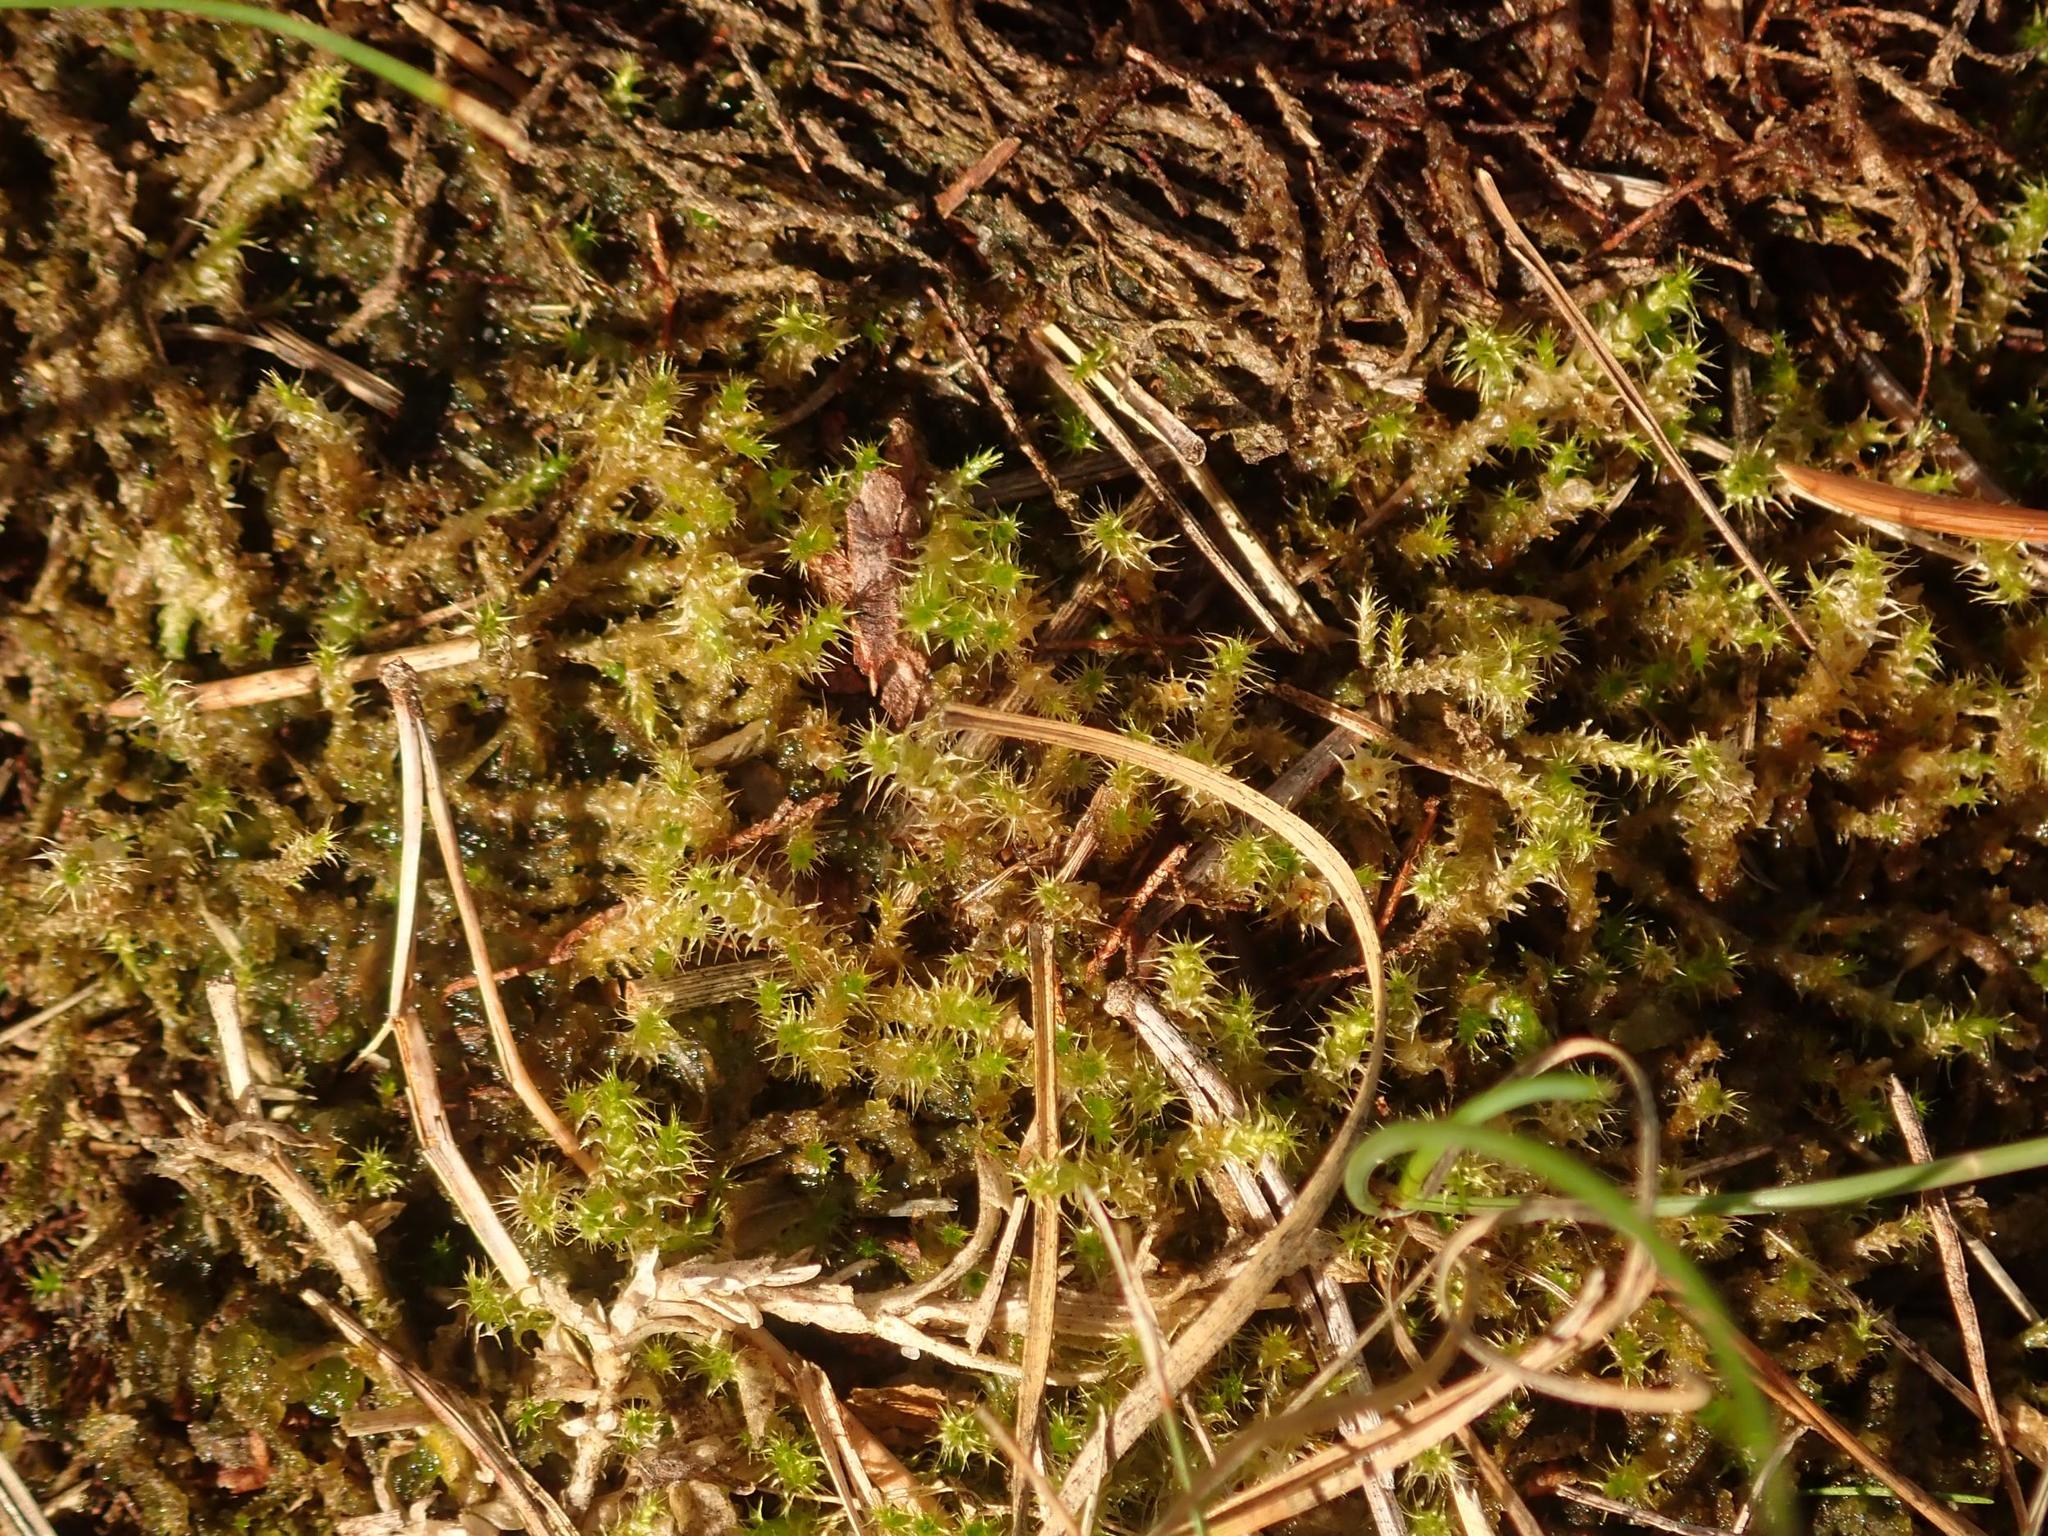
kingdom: Plantae
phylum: Bryophyta
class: Bryopsida
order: Hypnales
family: Hylocomiaceae
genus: Rhytidiadelphus
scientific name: Rhytidiadelphus squarrosus
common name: Springy turf-moss
